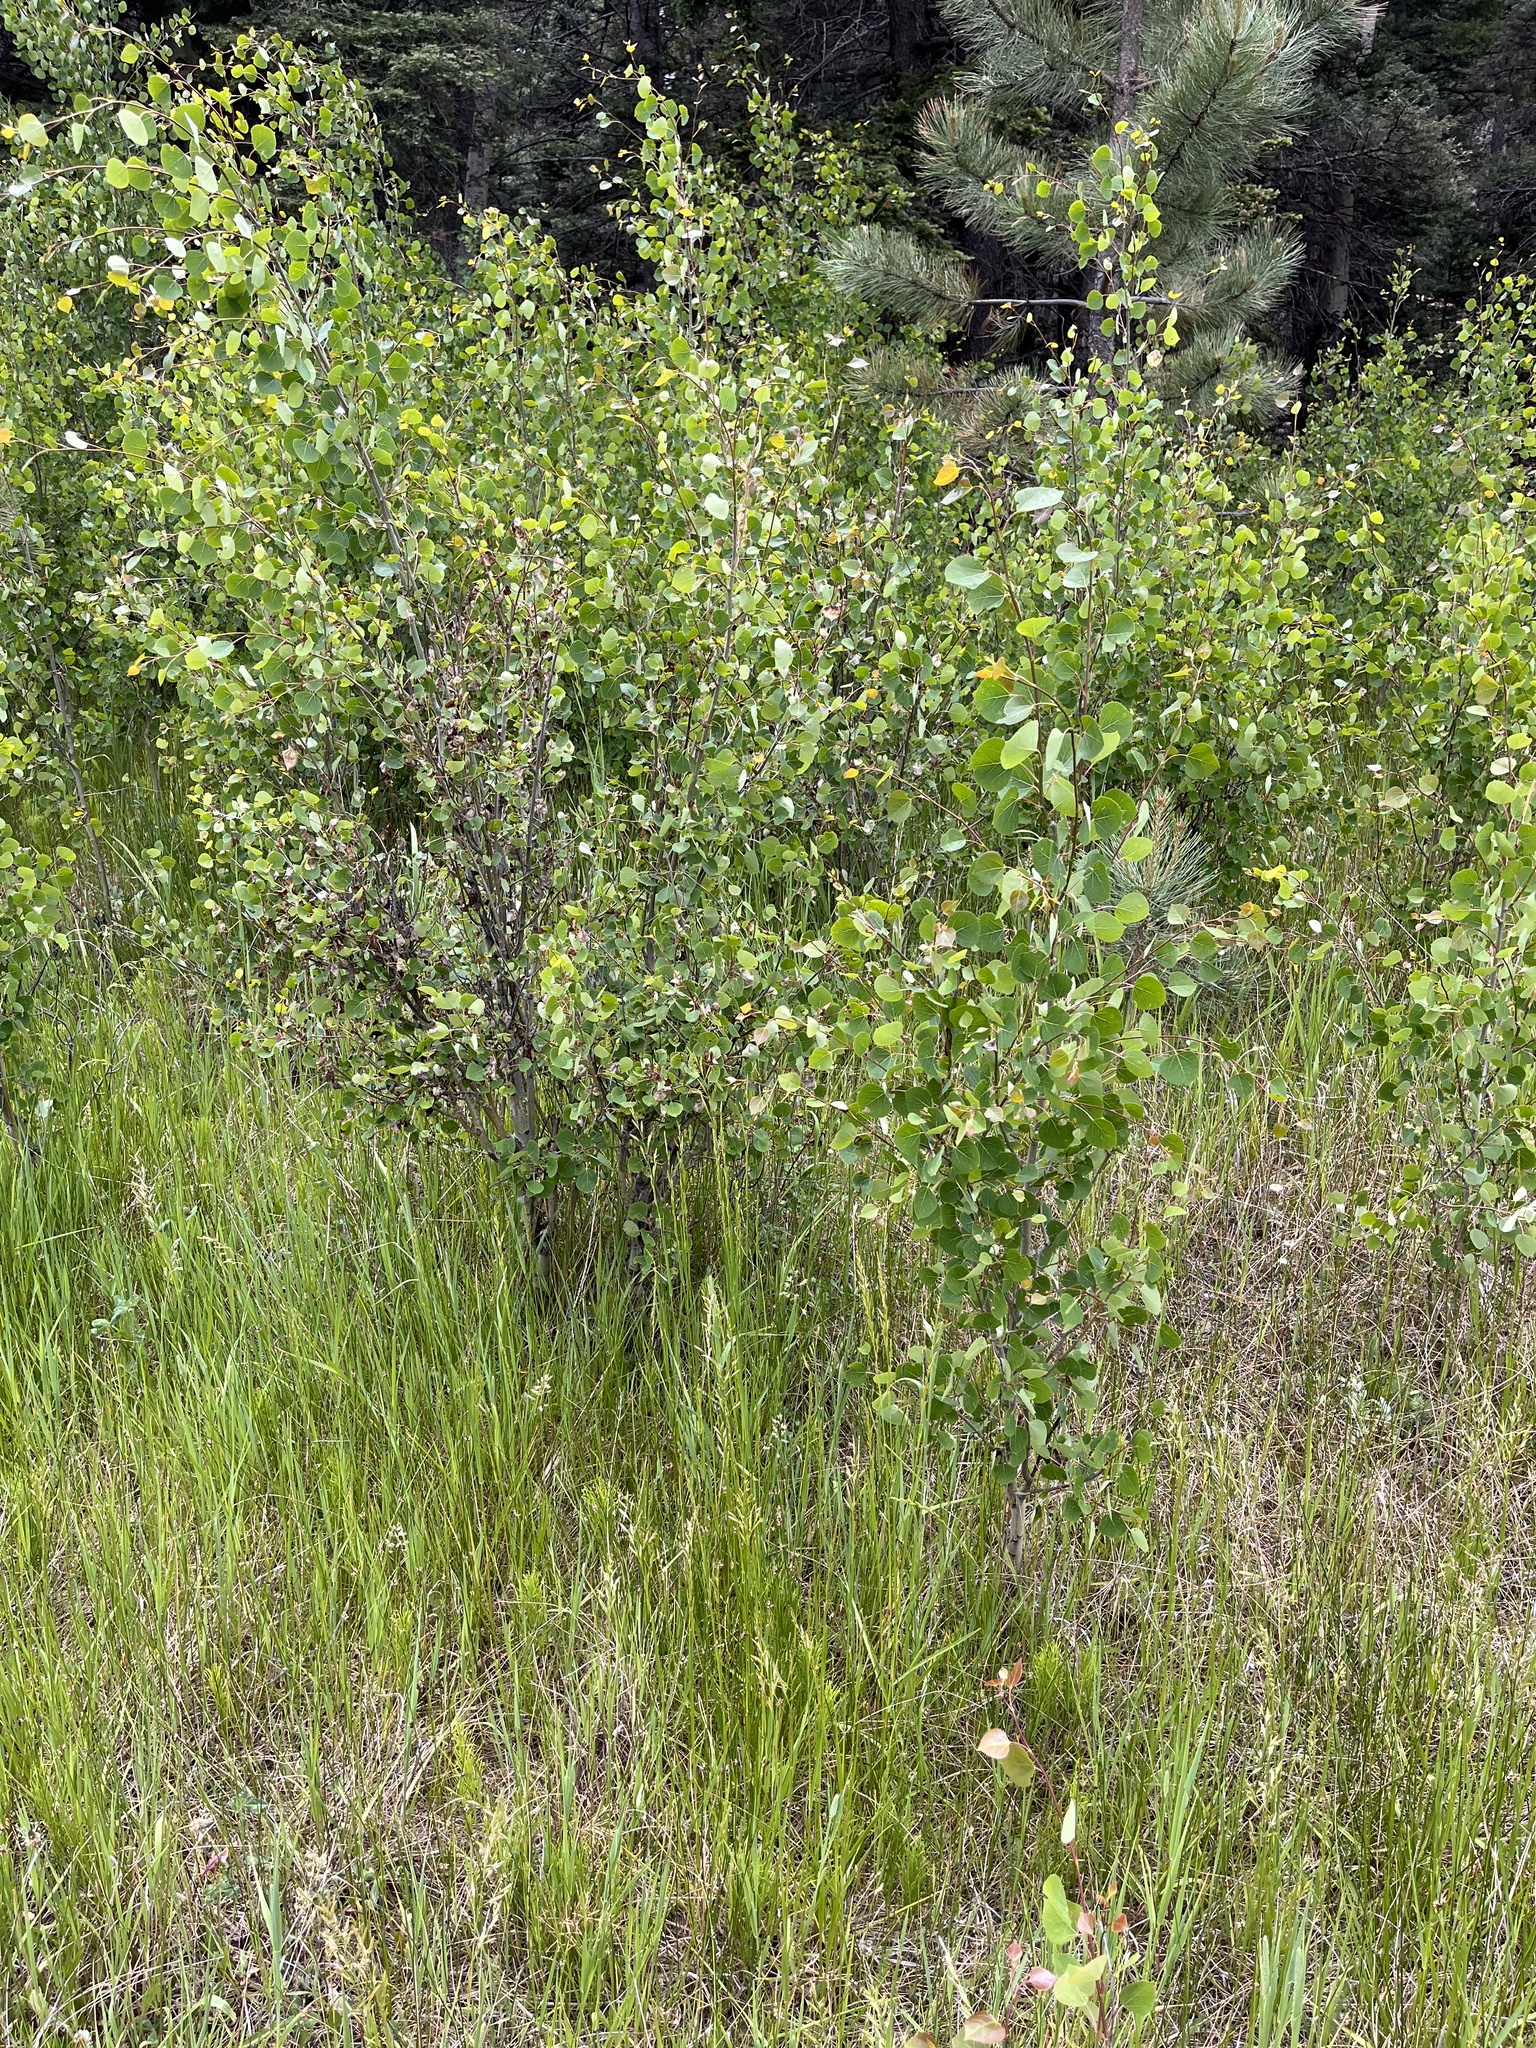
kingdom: Plantae
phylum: Tracheophyta
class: Magnoliopsida
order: Malpighiales
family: Salicaceae
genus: Populus
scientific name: Populus tremuloides
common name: Quaking aspen
